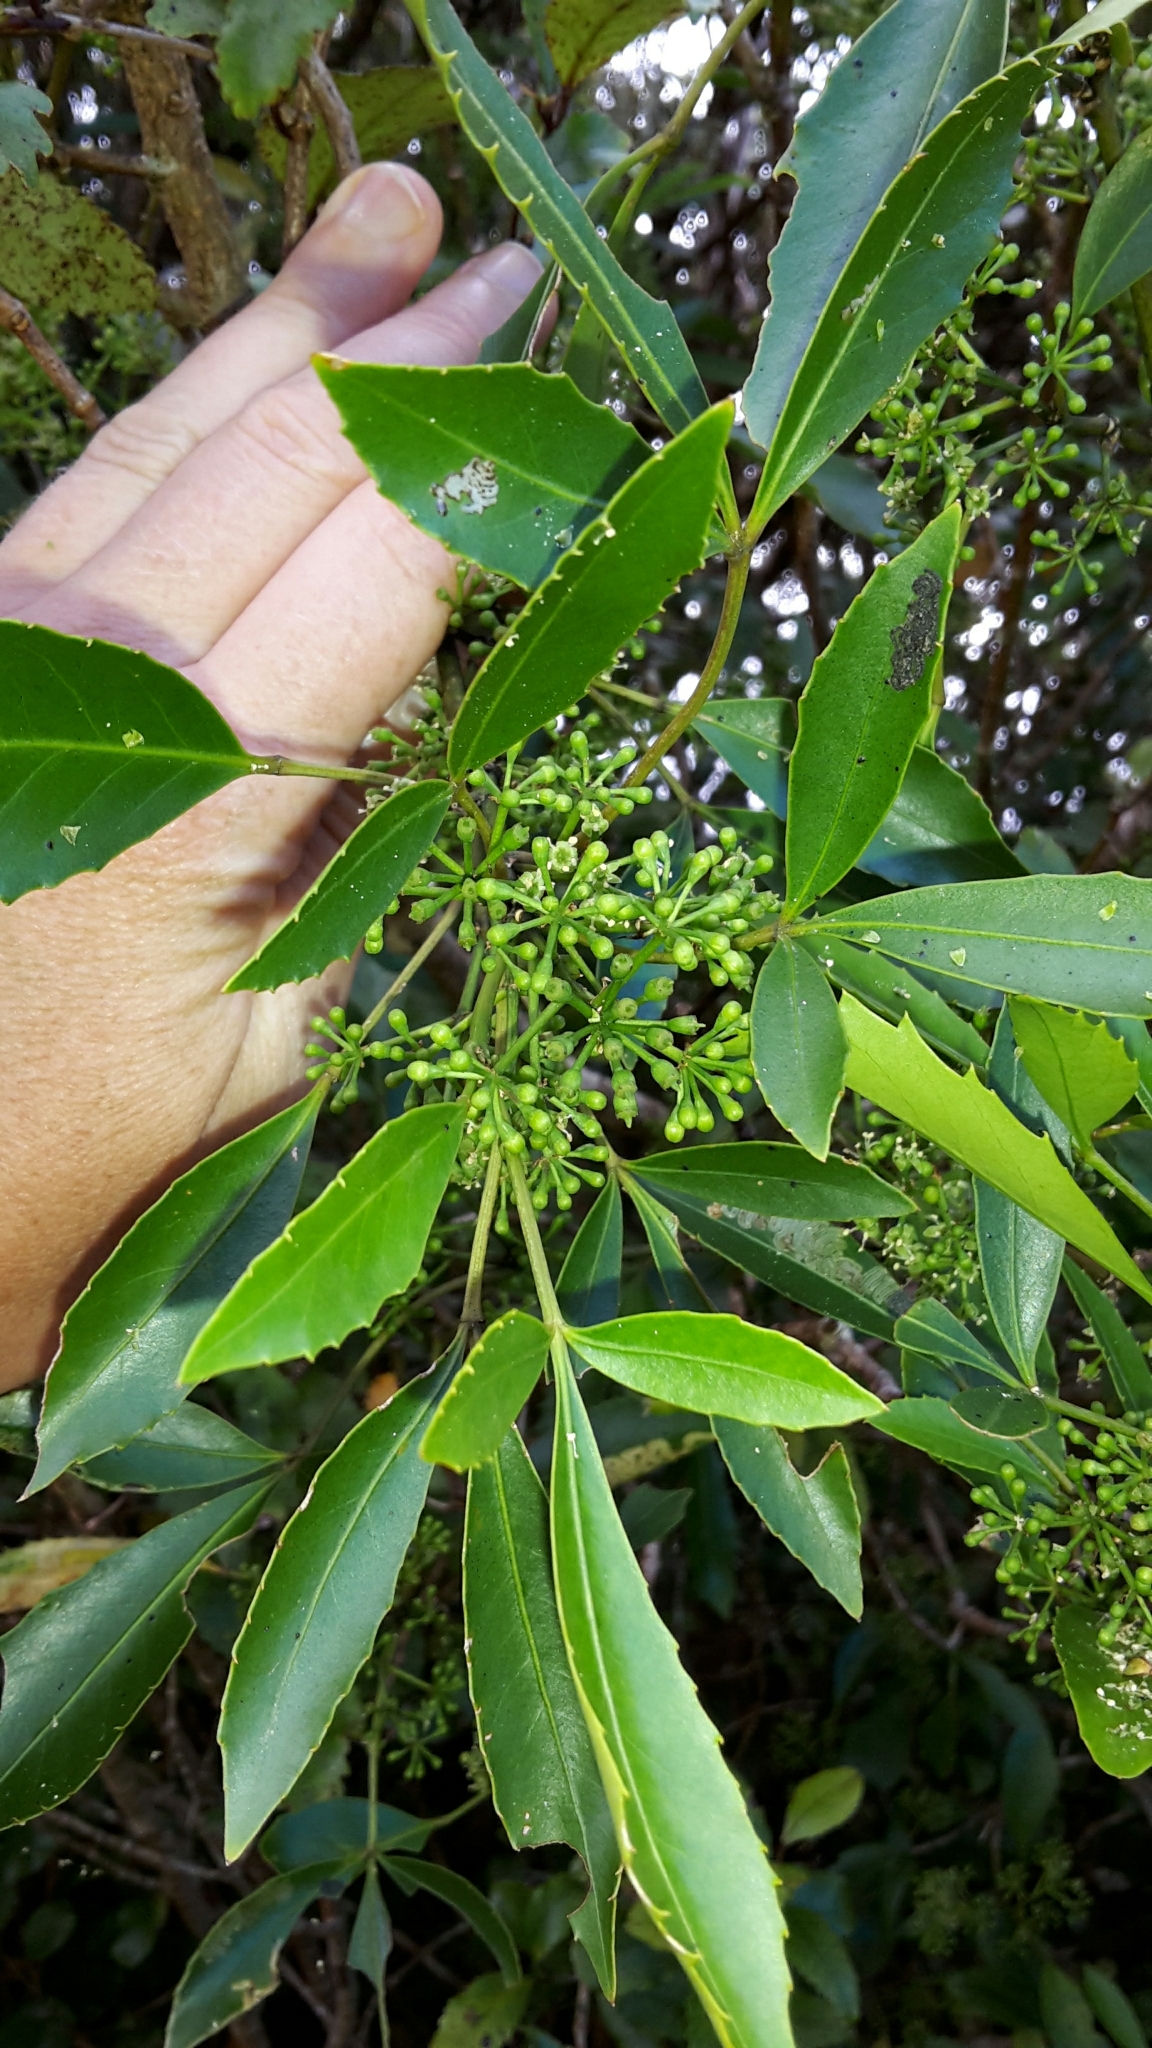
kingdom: Plantae
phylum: Tracheophyta
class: Magnoliopsida
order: Apiales
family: Araliaceae
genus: Raukaua
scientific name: Raukaua simplex
